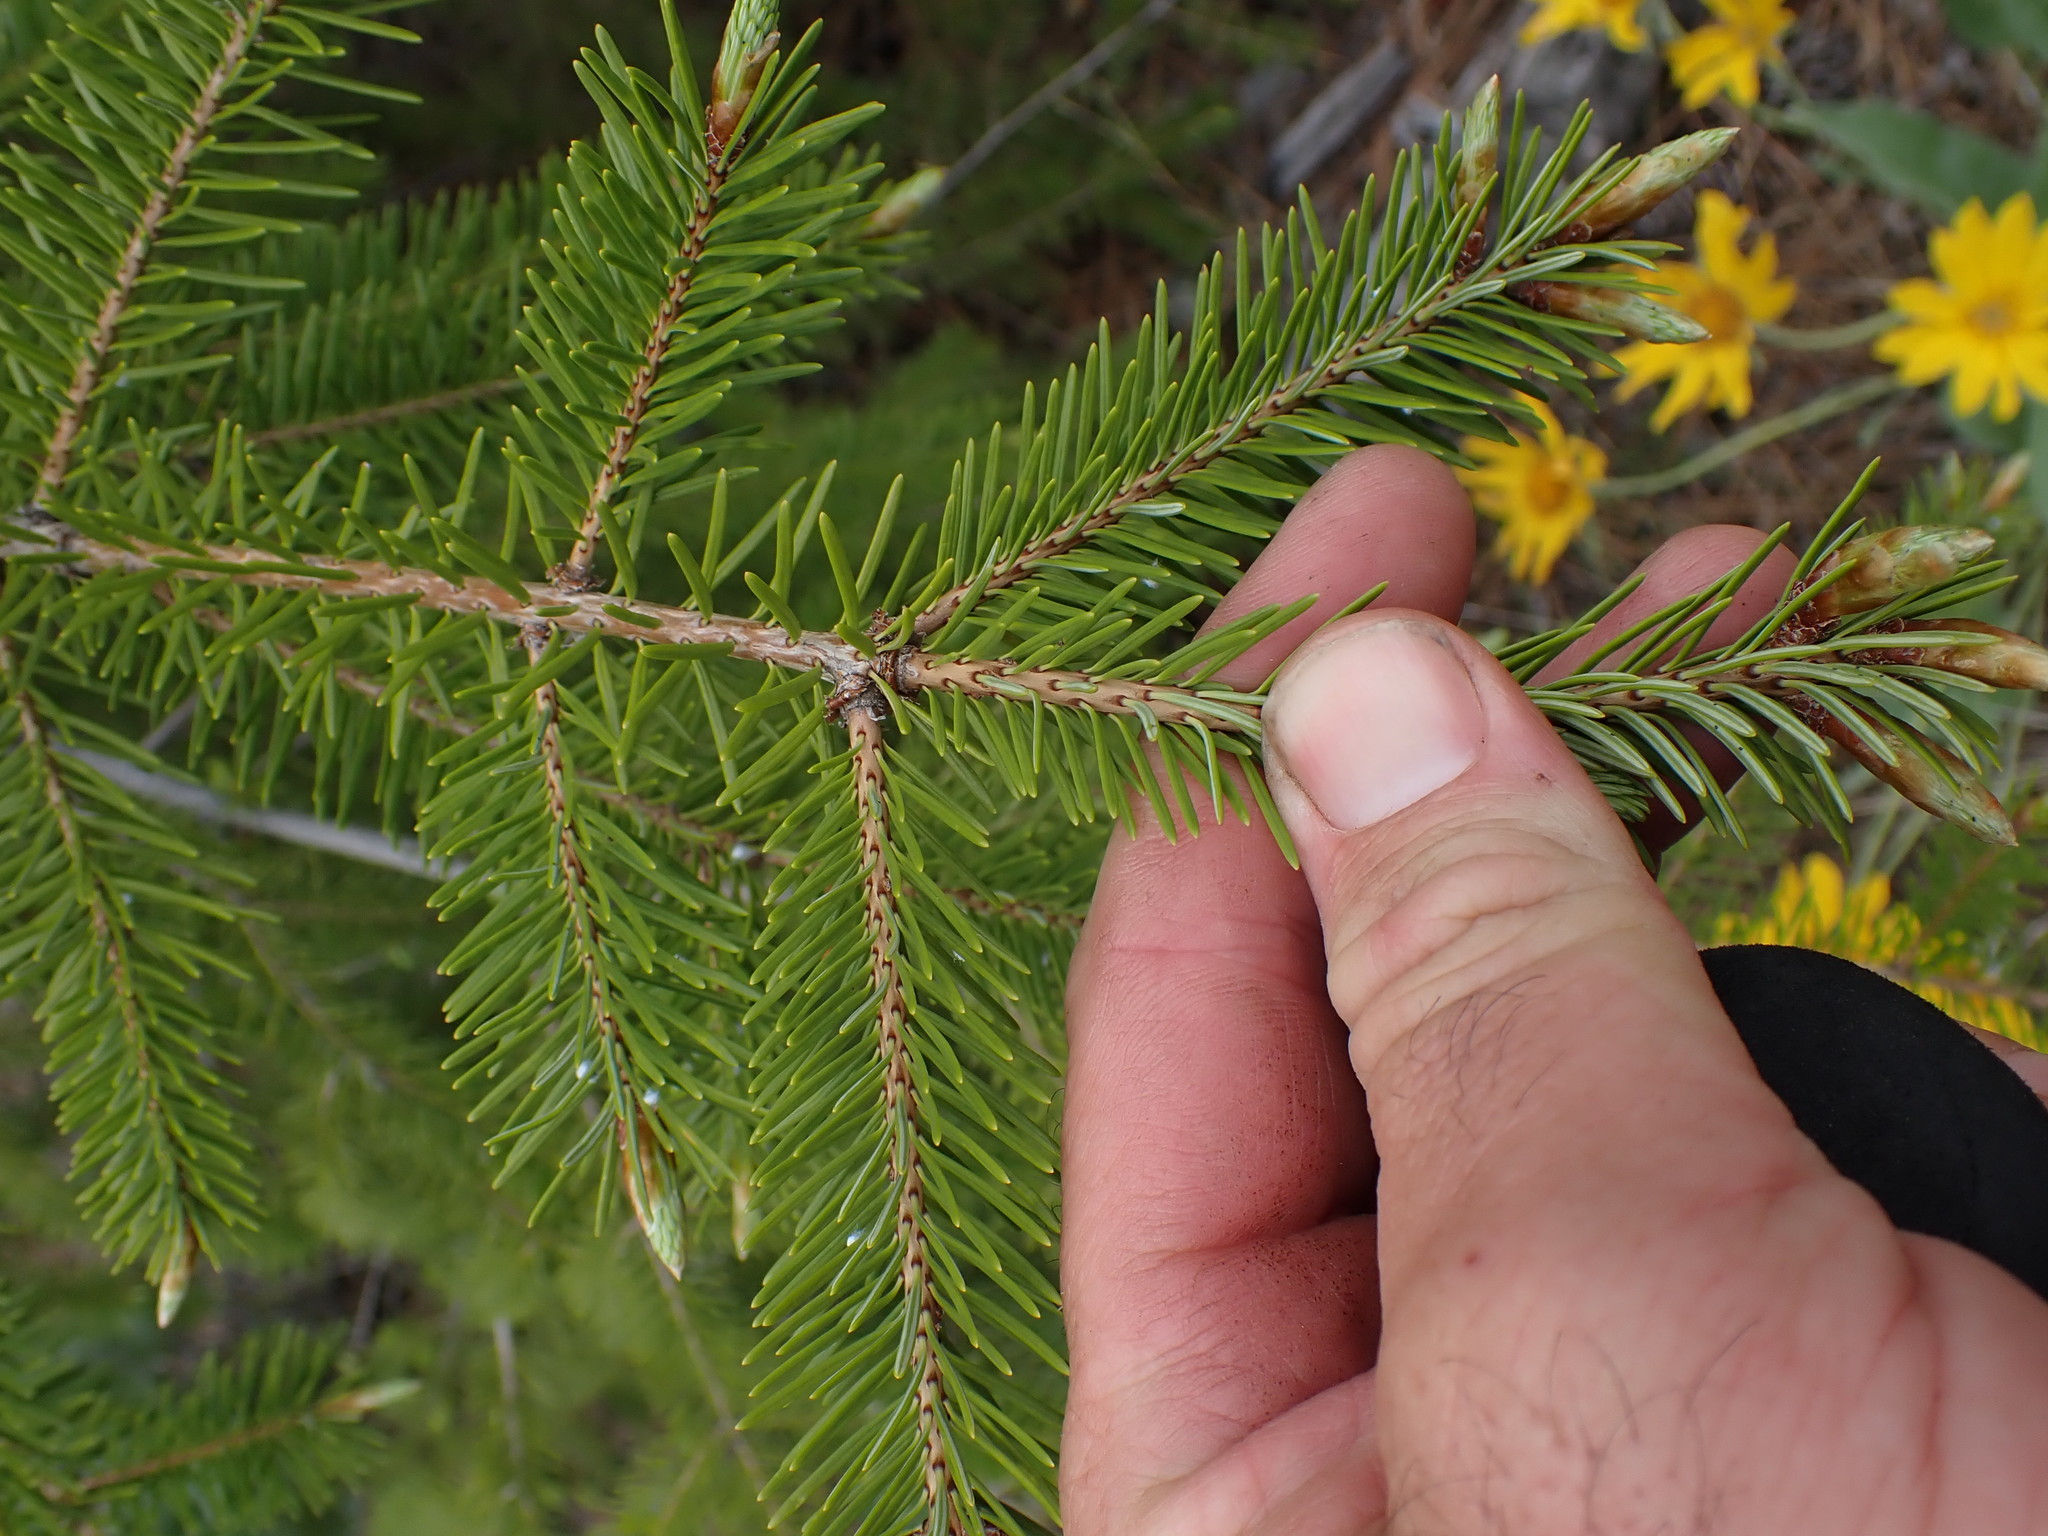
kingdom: Plantae
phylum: Tracheophyta
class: Pinopsida
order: Pinales
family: Pinaceae
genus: Pseudotsuga
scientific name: Pseudotsuga menziesii
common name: Douglas fir
